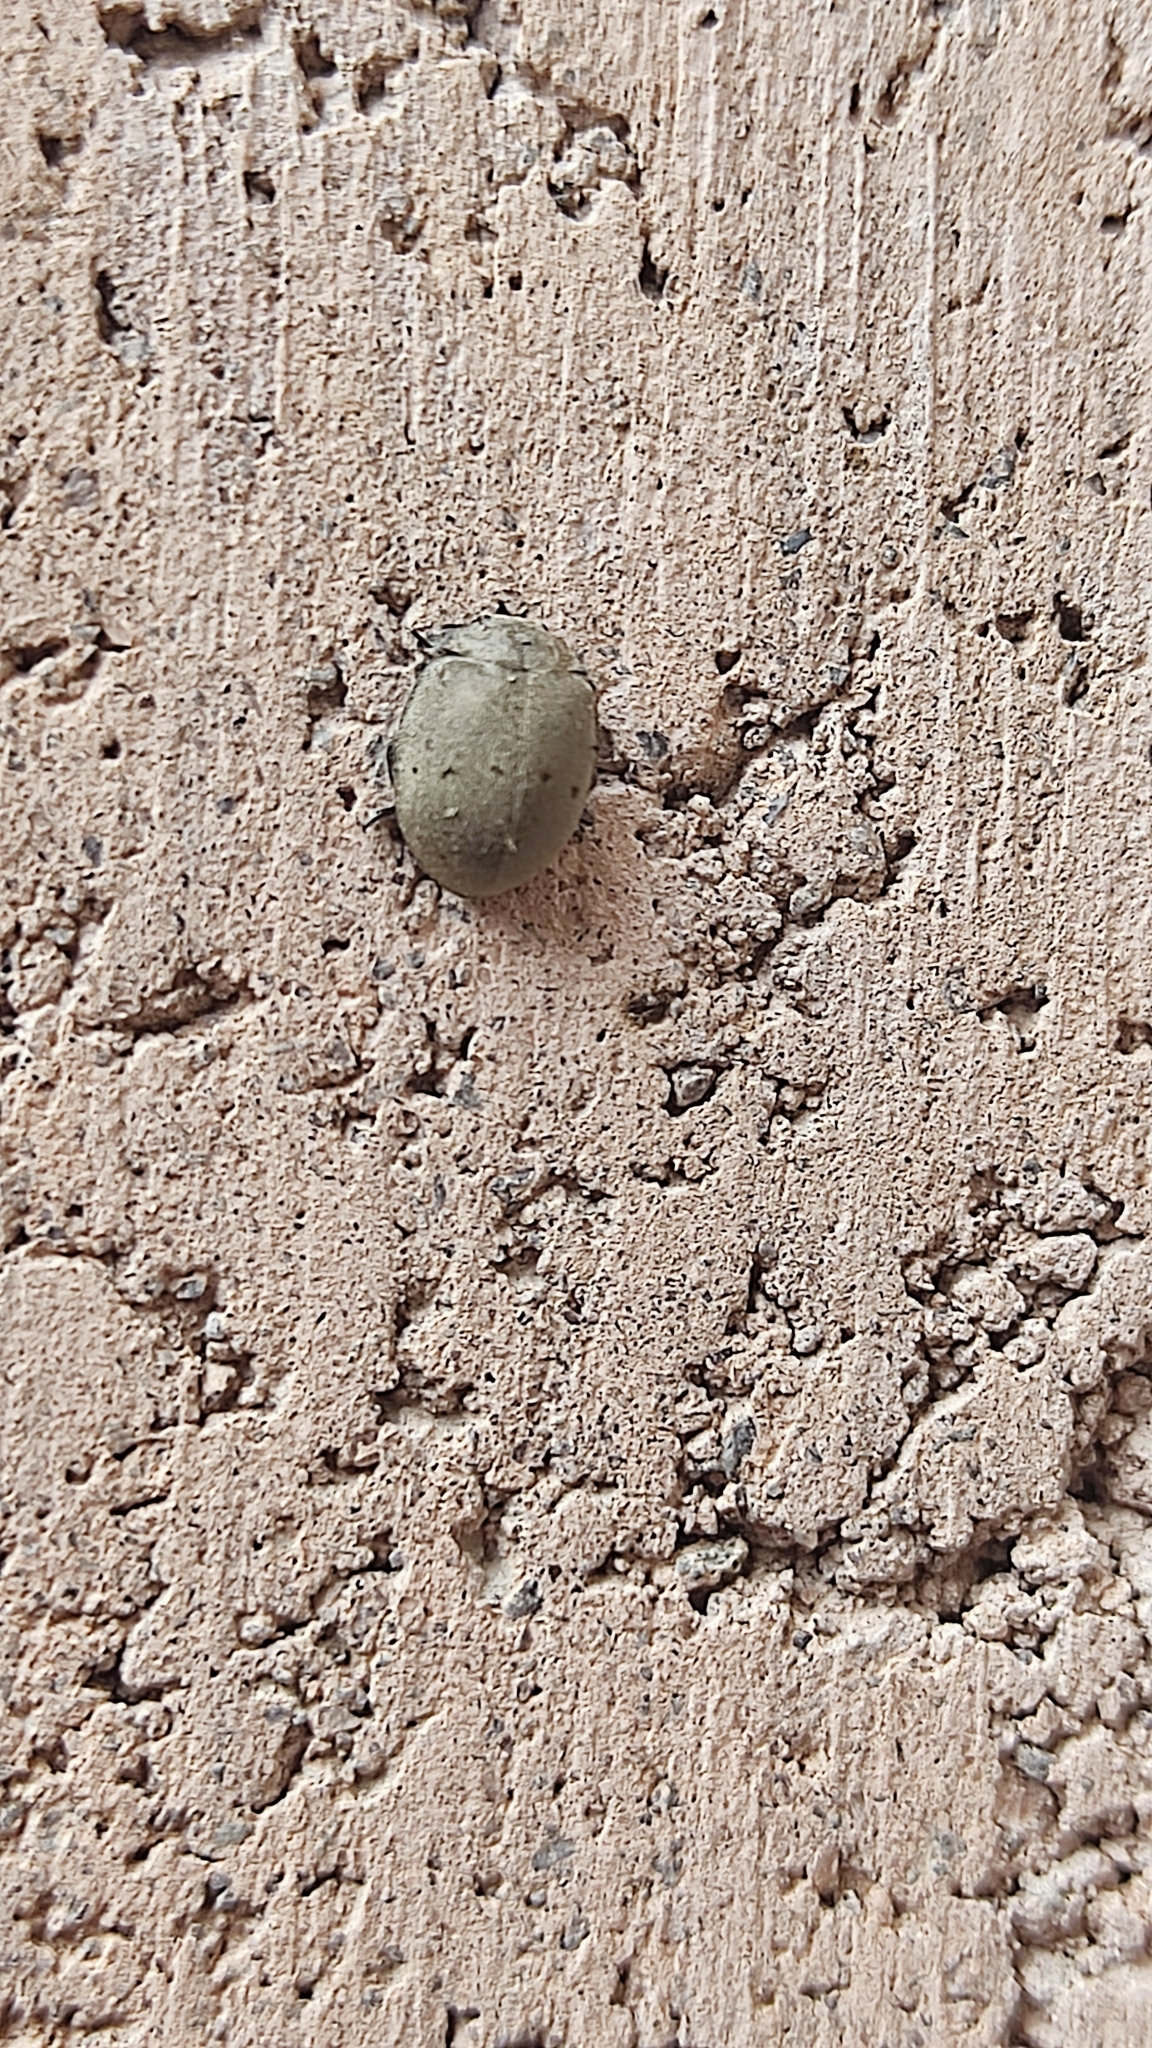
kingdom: Animalia
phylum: Arthropoda
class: Insecta
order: Coleoptera
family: Coccinellidae
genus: Epilachna
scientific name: Epilachna
